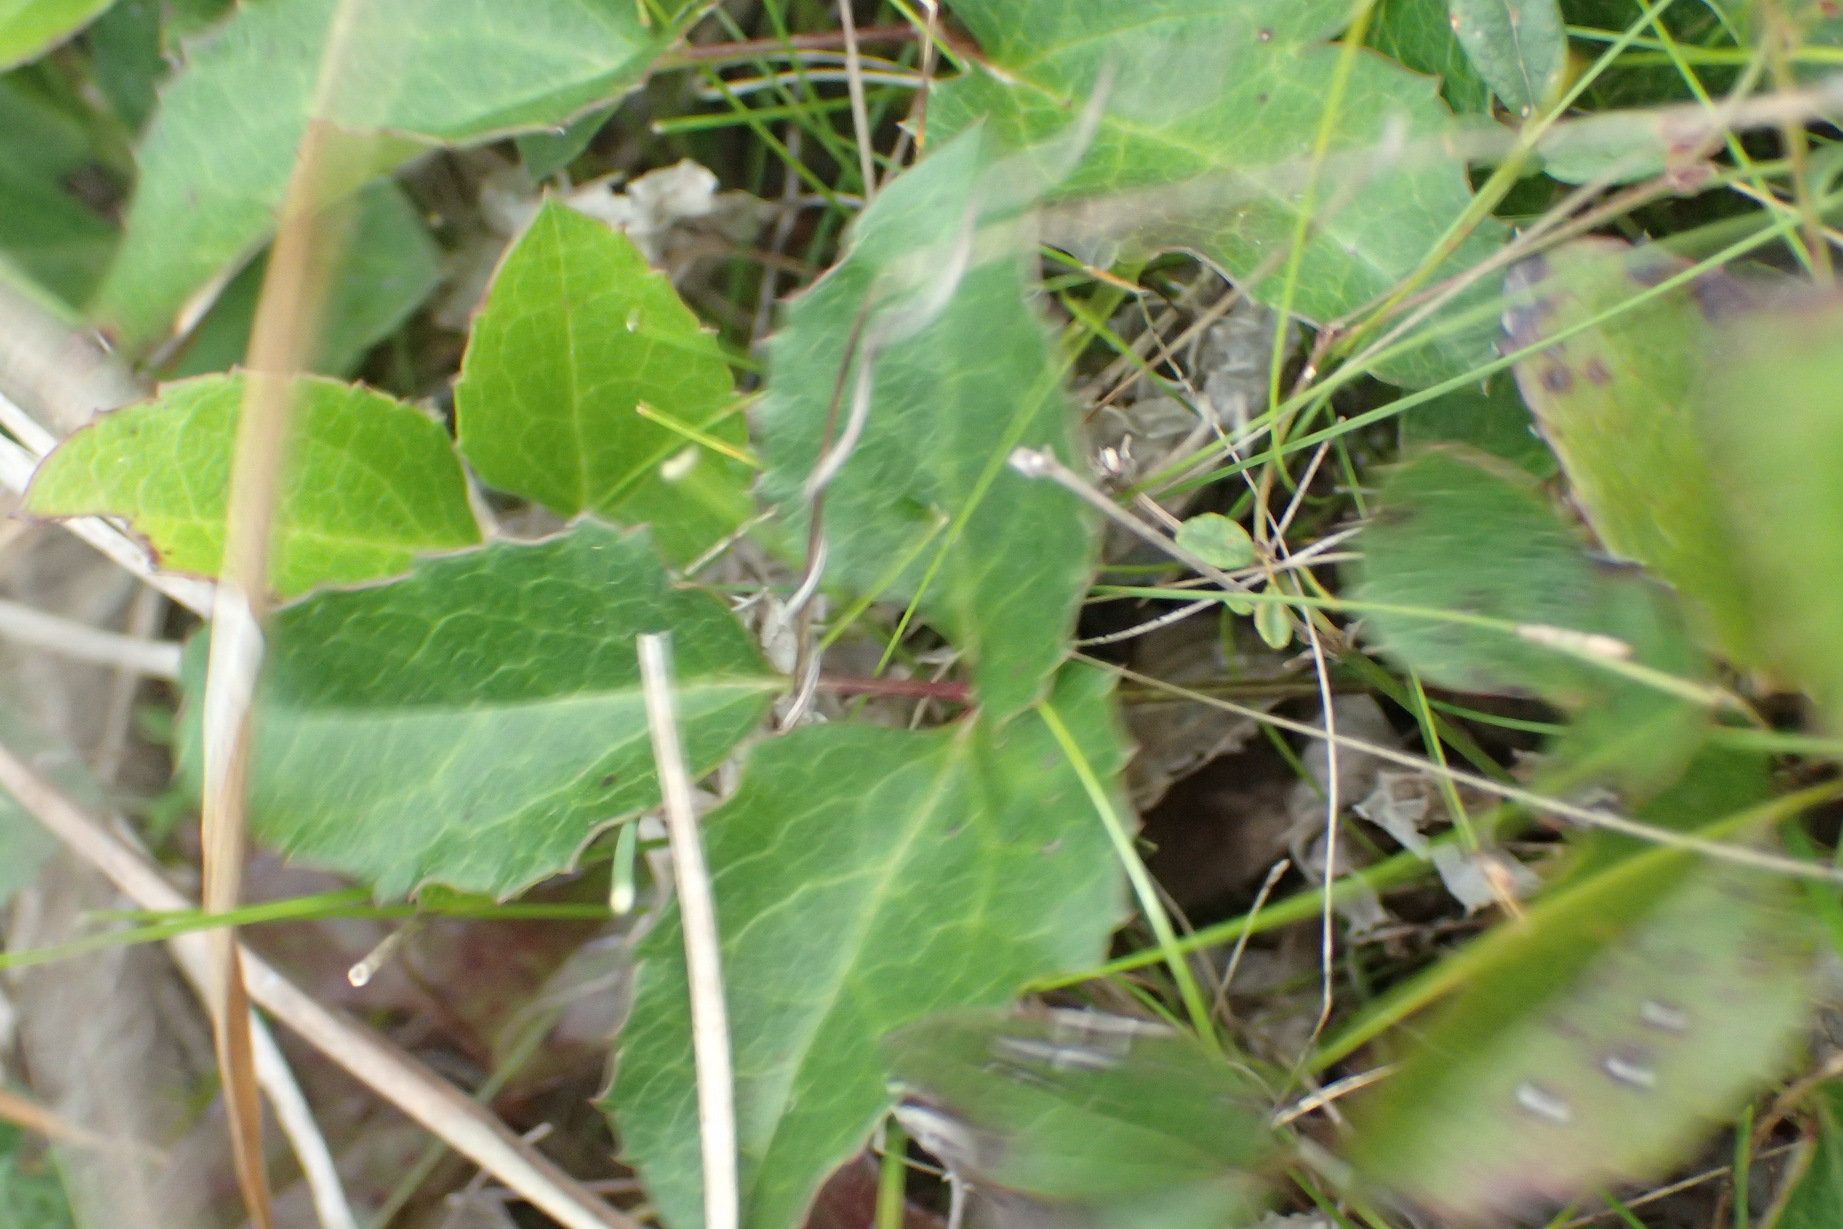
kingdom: Plantae
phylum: Tracheophyta
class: Magnoliopsida
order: Ranunculales
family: Ranunculaceae
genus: Knowltonia
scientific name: Knowltonia vesicatoria
